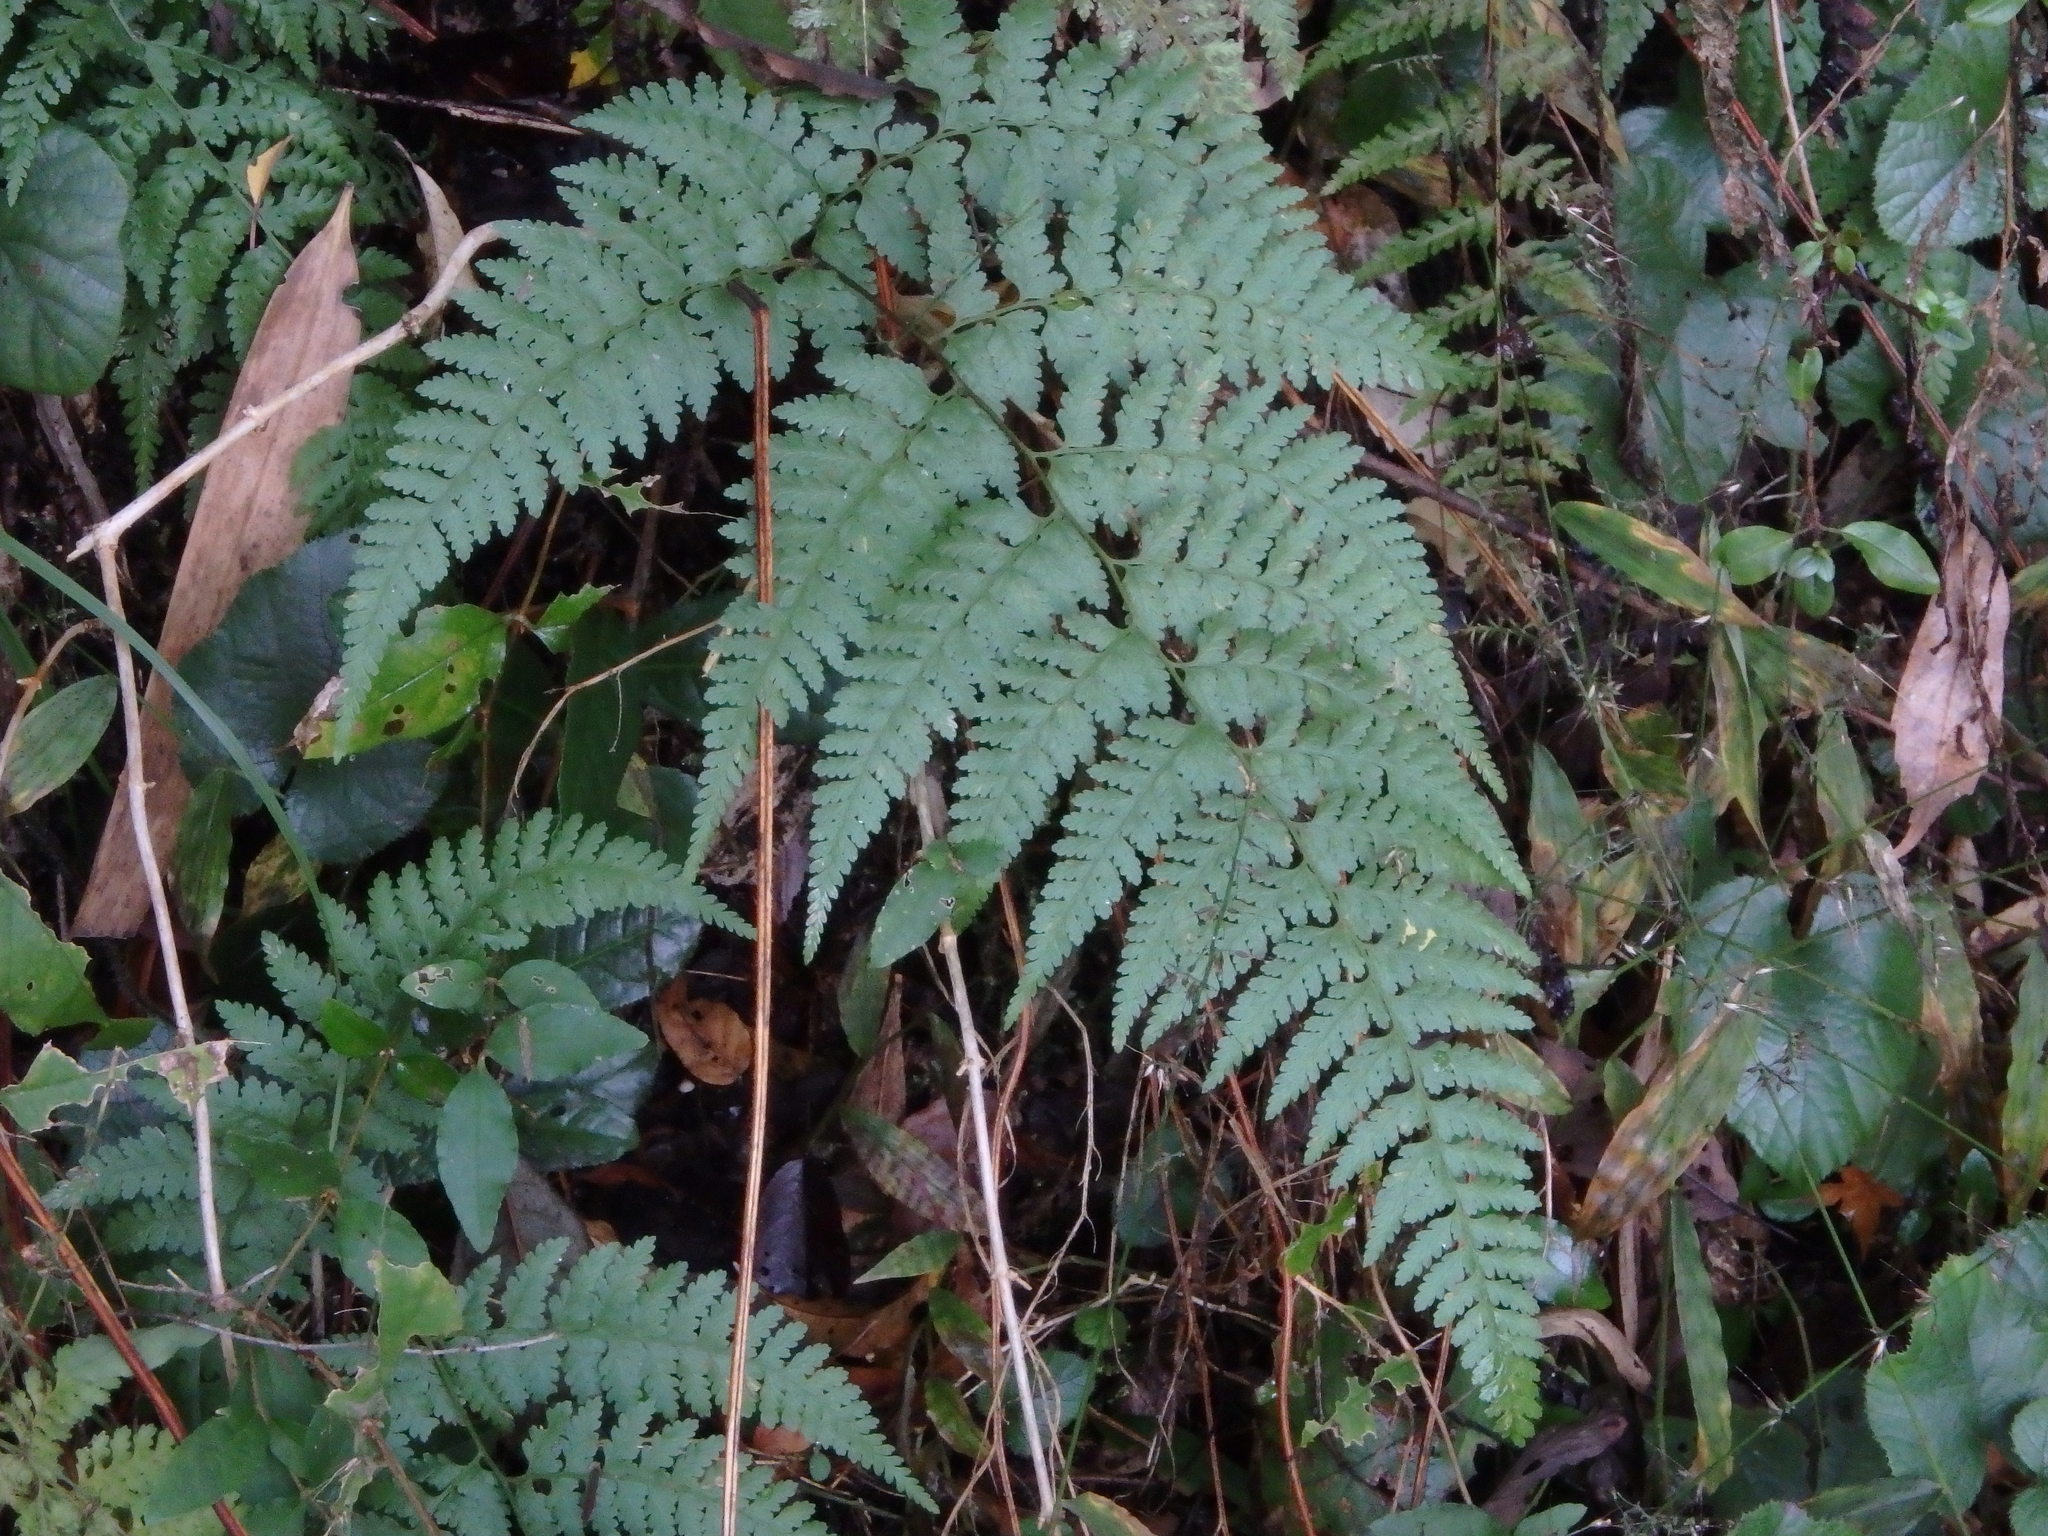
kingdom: Plantae
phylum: Tracheophyta
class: Polypodiopsida
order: Polypodiales
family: Dennstaedtiaceae
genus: Sitobolium
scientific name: Sitobolium zeylanicum
